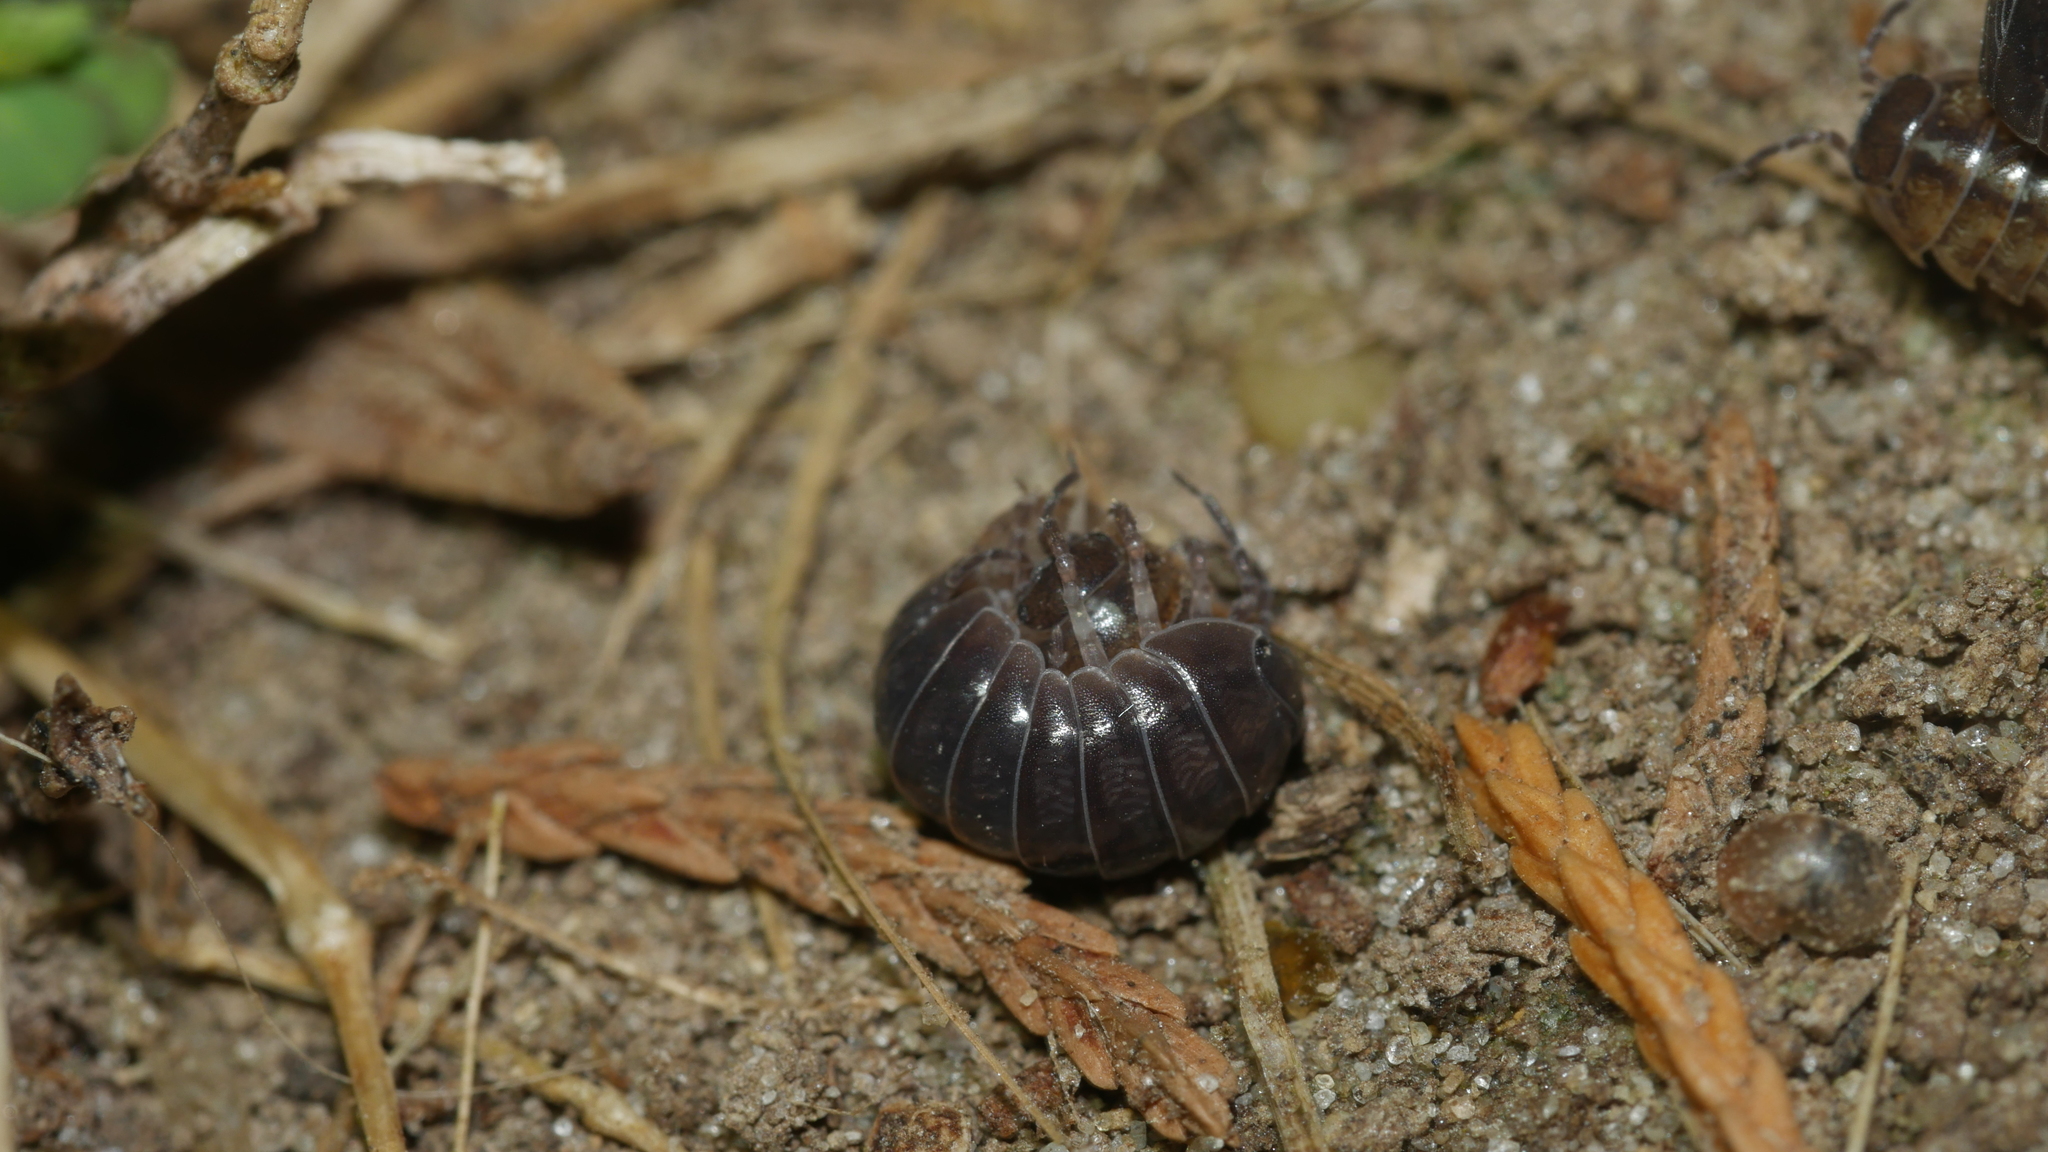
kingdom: Animalia
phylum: Arthropoda
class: Malacostraca
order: Isopoda
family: Armadillidiidae
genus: Armadillidium
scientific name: Armadillidium vulgare
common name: Common pill woodlouse
